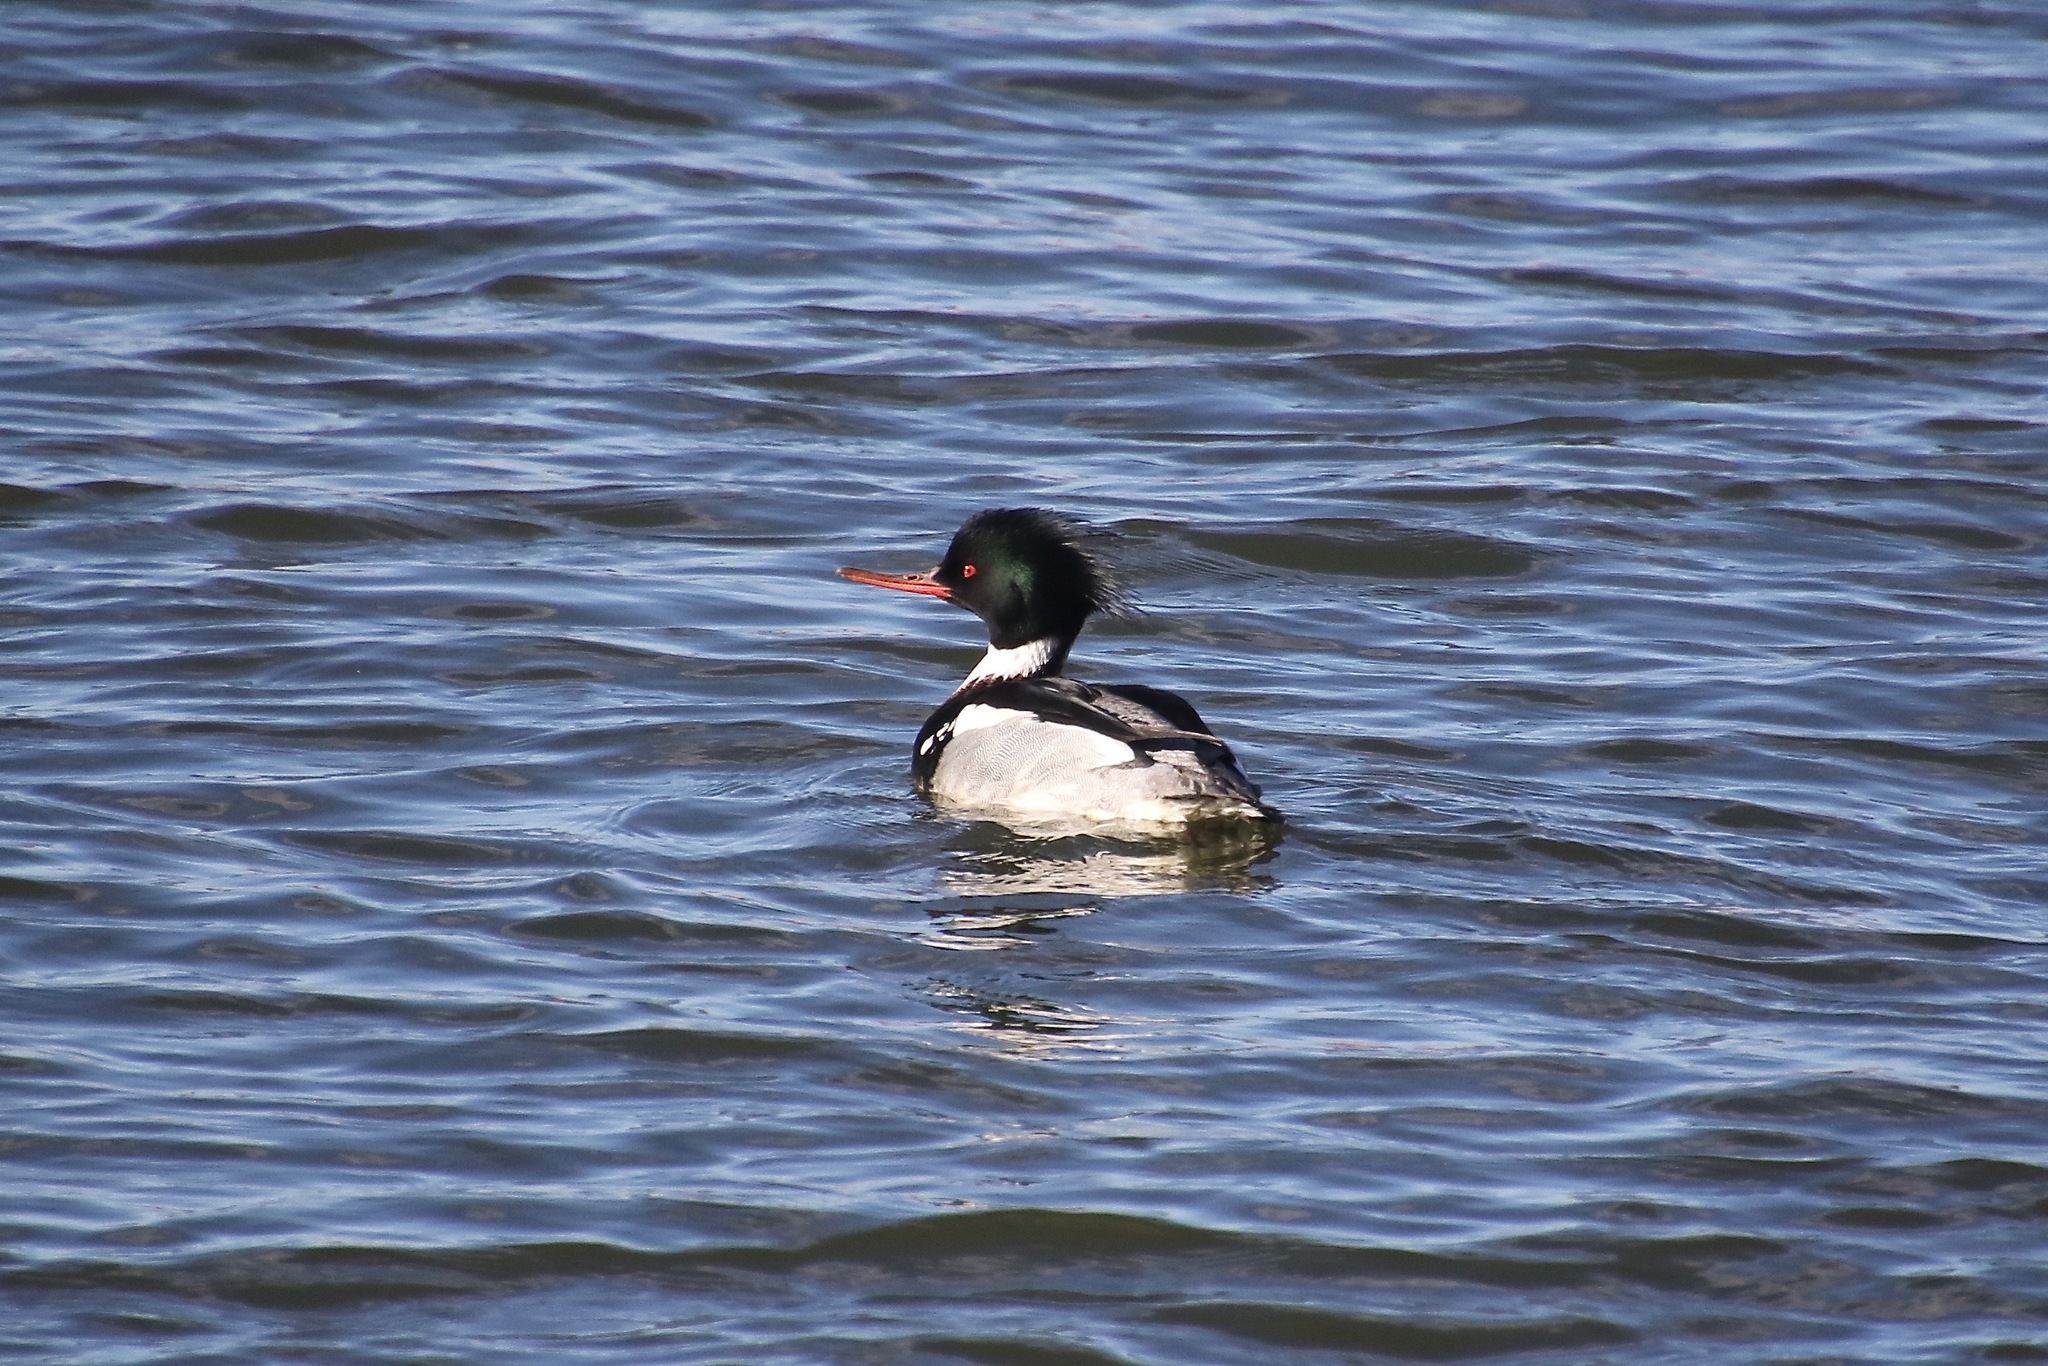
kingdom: Animalia
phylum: Chordata
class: Aves
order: Anseriformes
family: Anatidae
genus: Mergus
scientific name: Mergus serrator
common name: Red-breasted merganser
